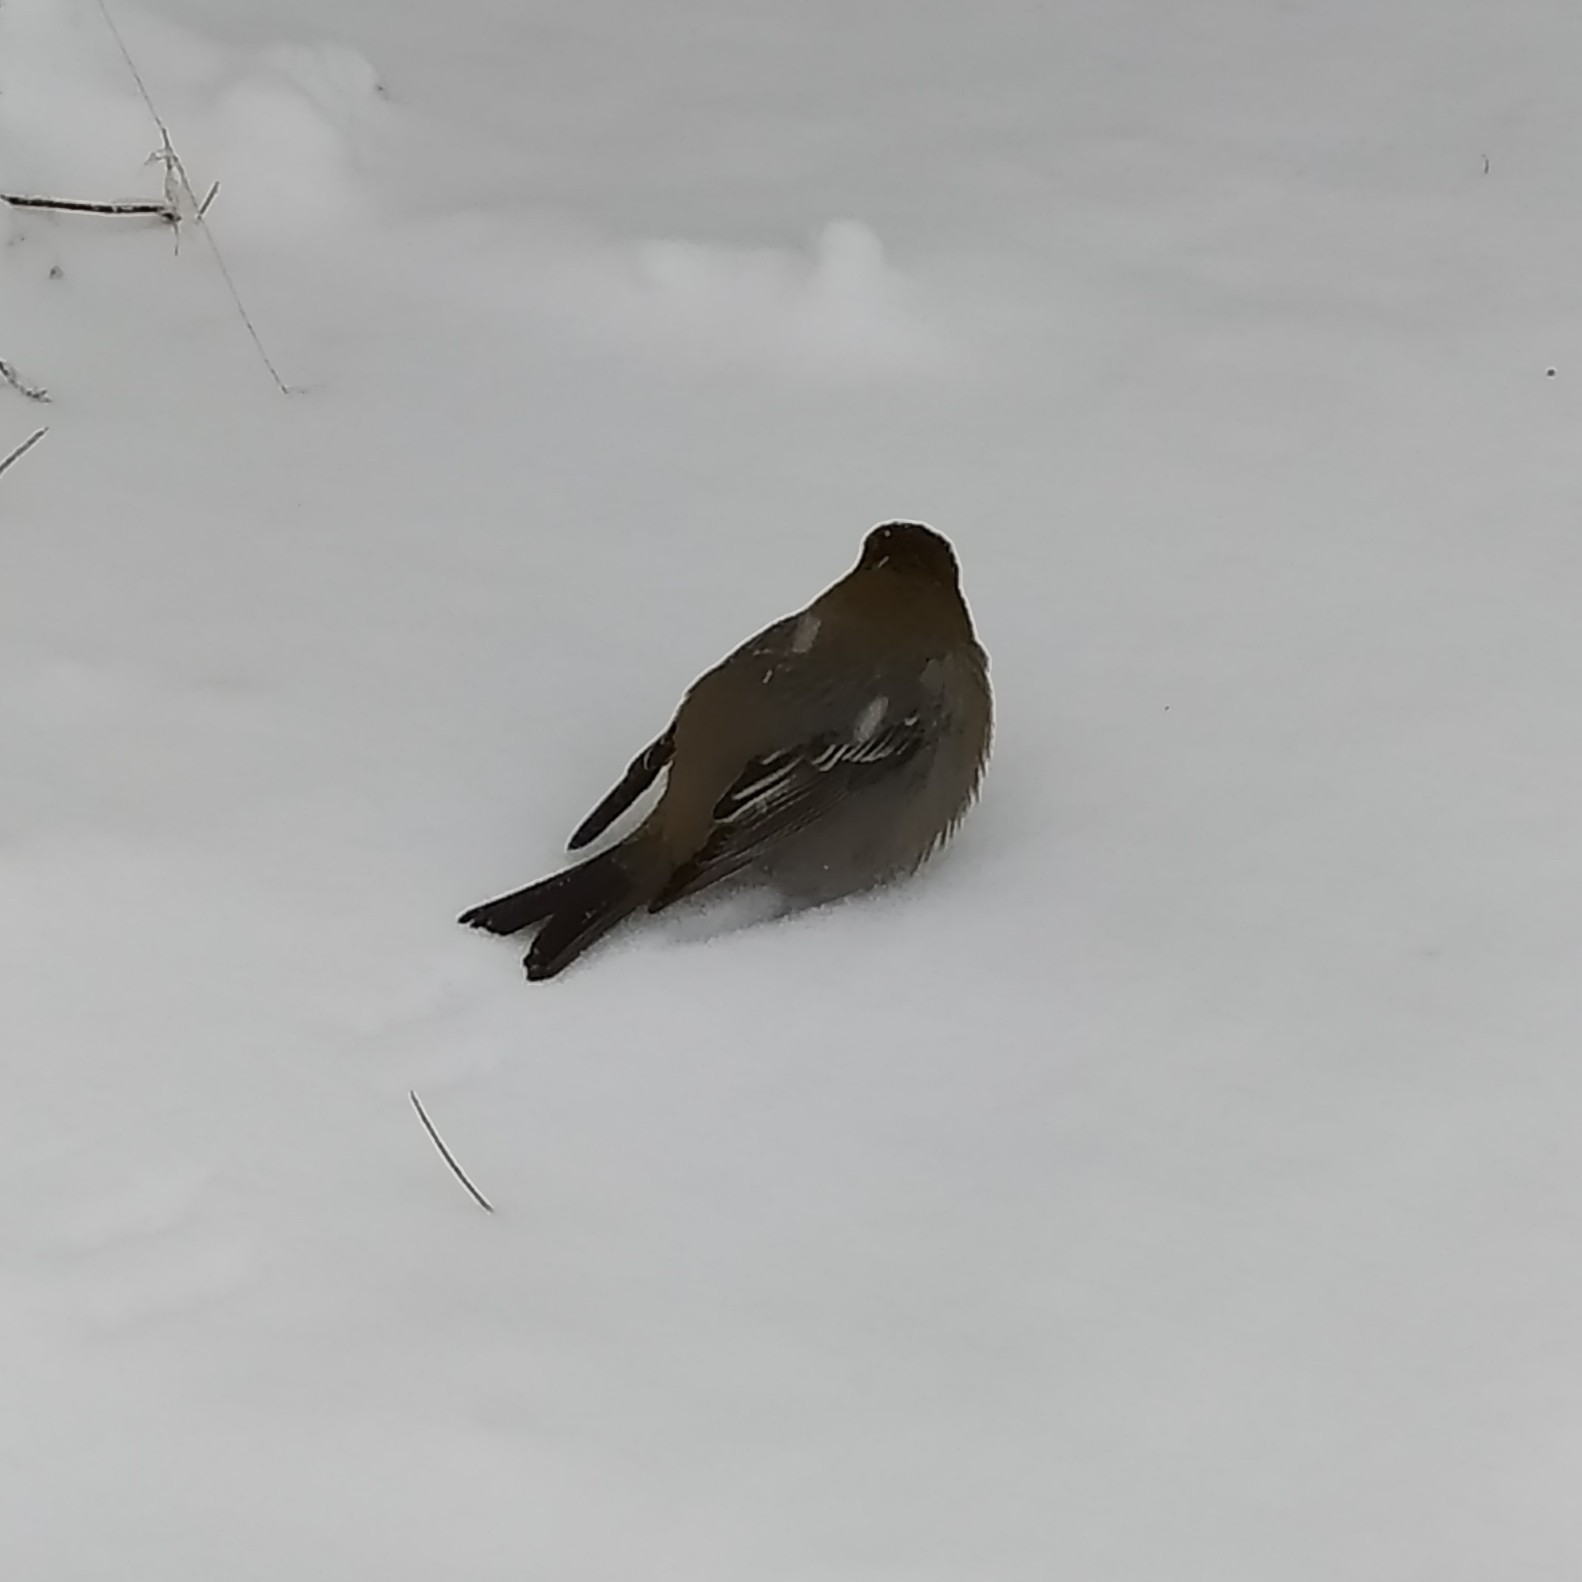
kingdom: Animalia
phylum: Chordata
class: Aves
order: Passeriformes
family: Fringillidae
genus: Pinicola
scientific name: Pinicola enucleator
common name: Pine grosbeak
